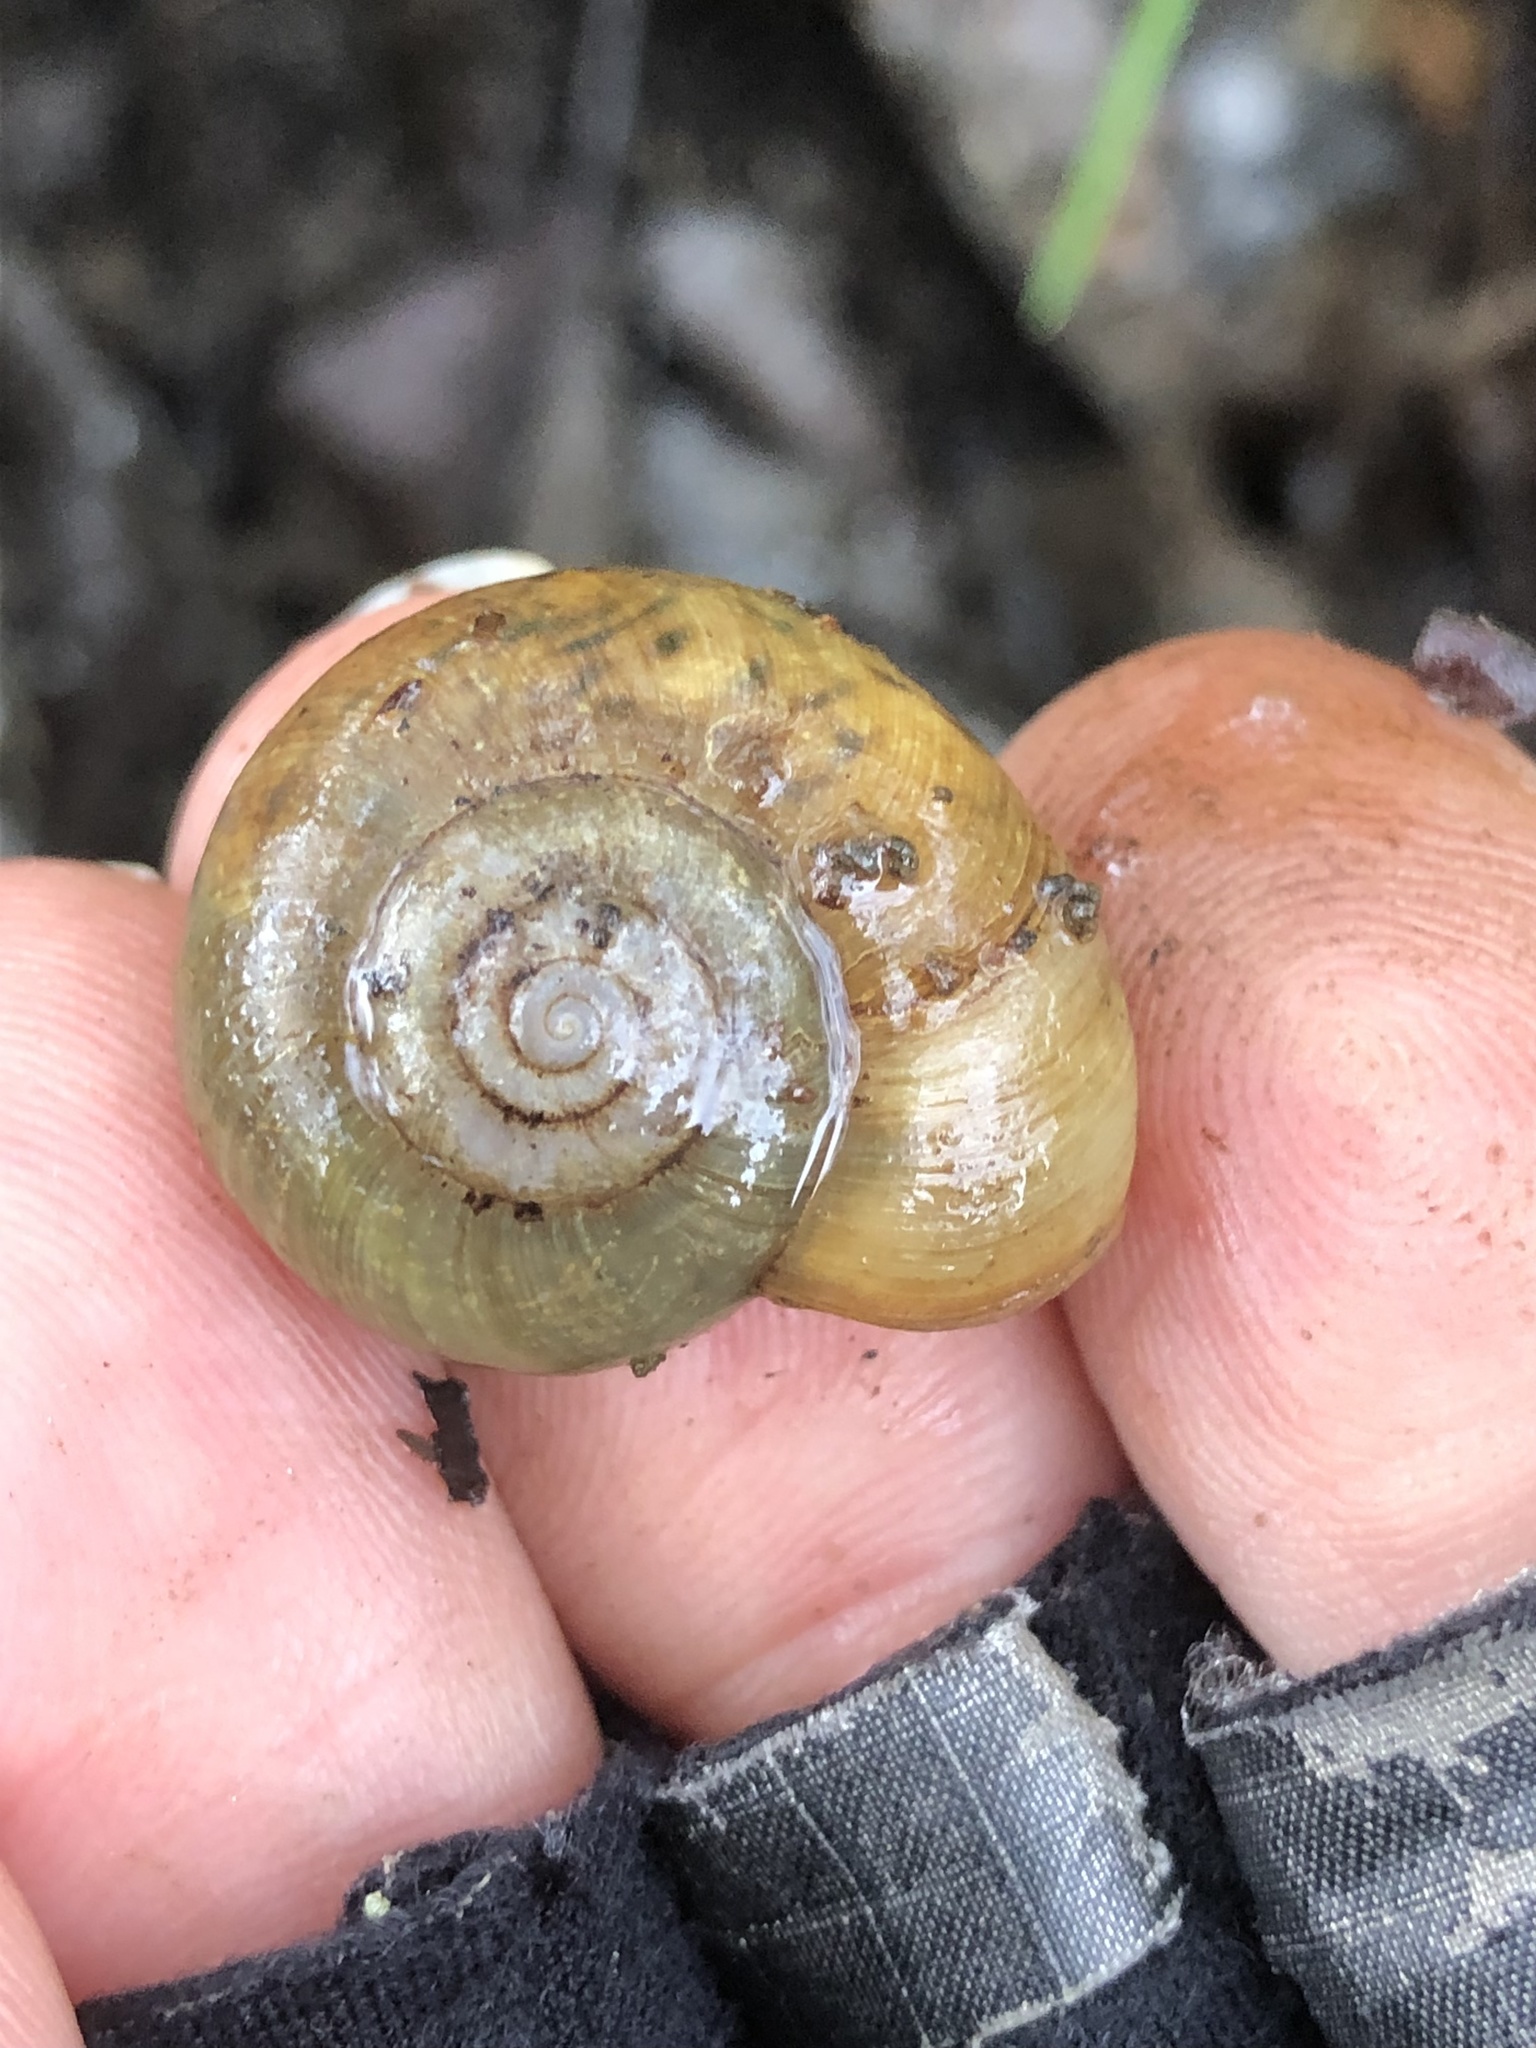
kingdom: Animalia
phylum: Mollusca
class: Gastropoda
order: Stylommatophora
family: Haplotrematidae
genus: Haplotrema
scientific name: Haplotrema minimum
